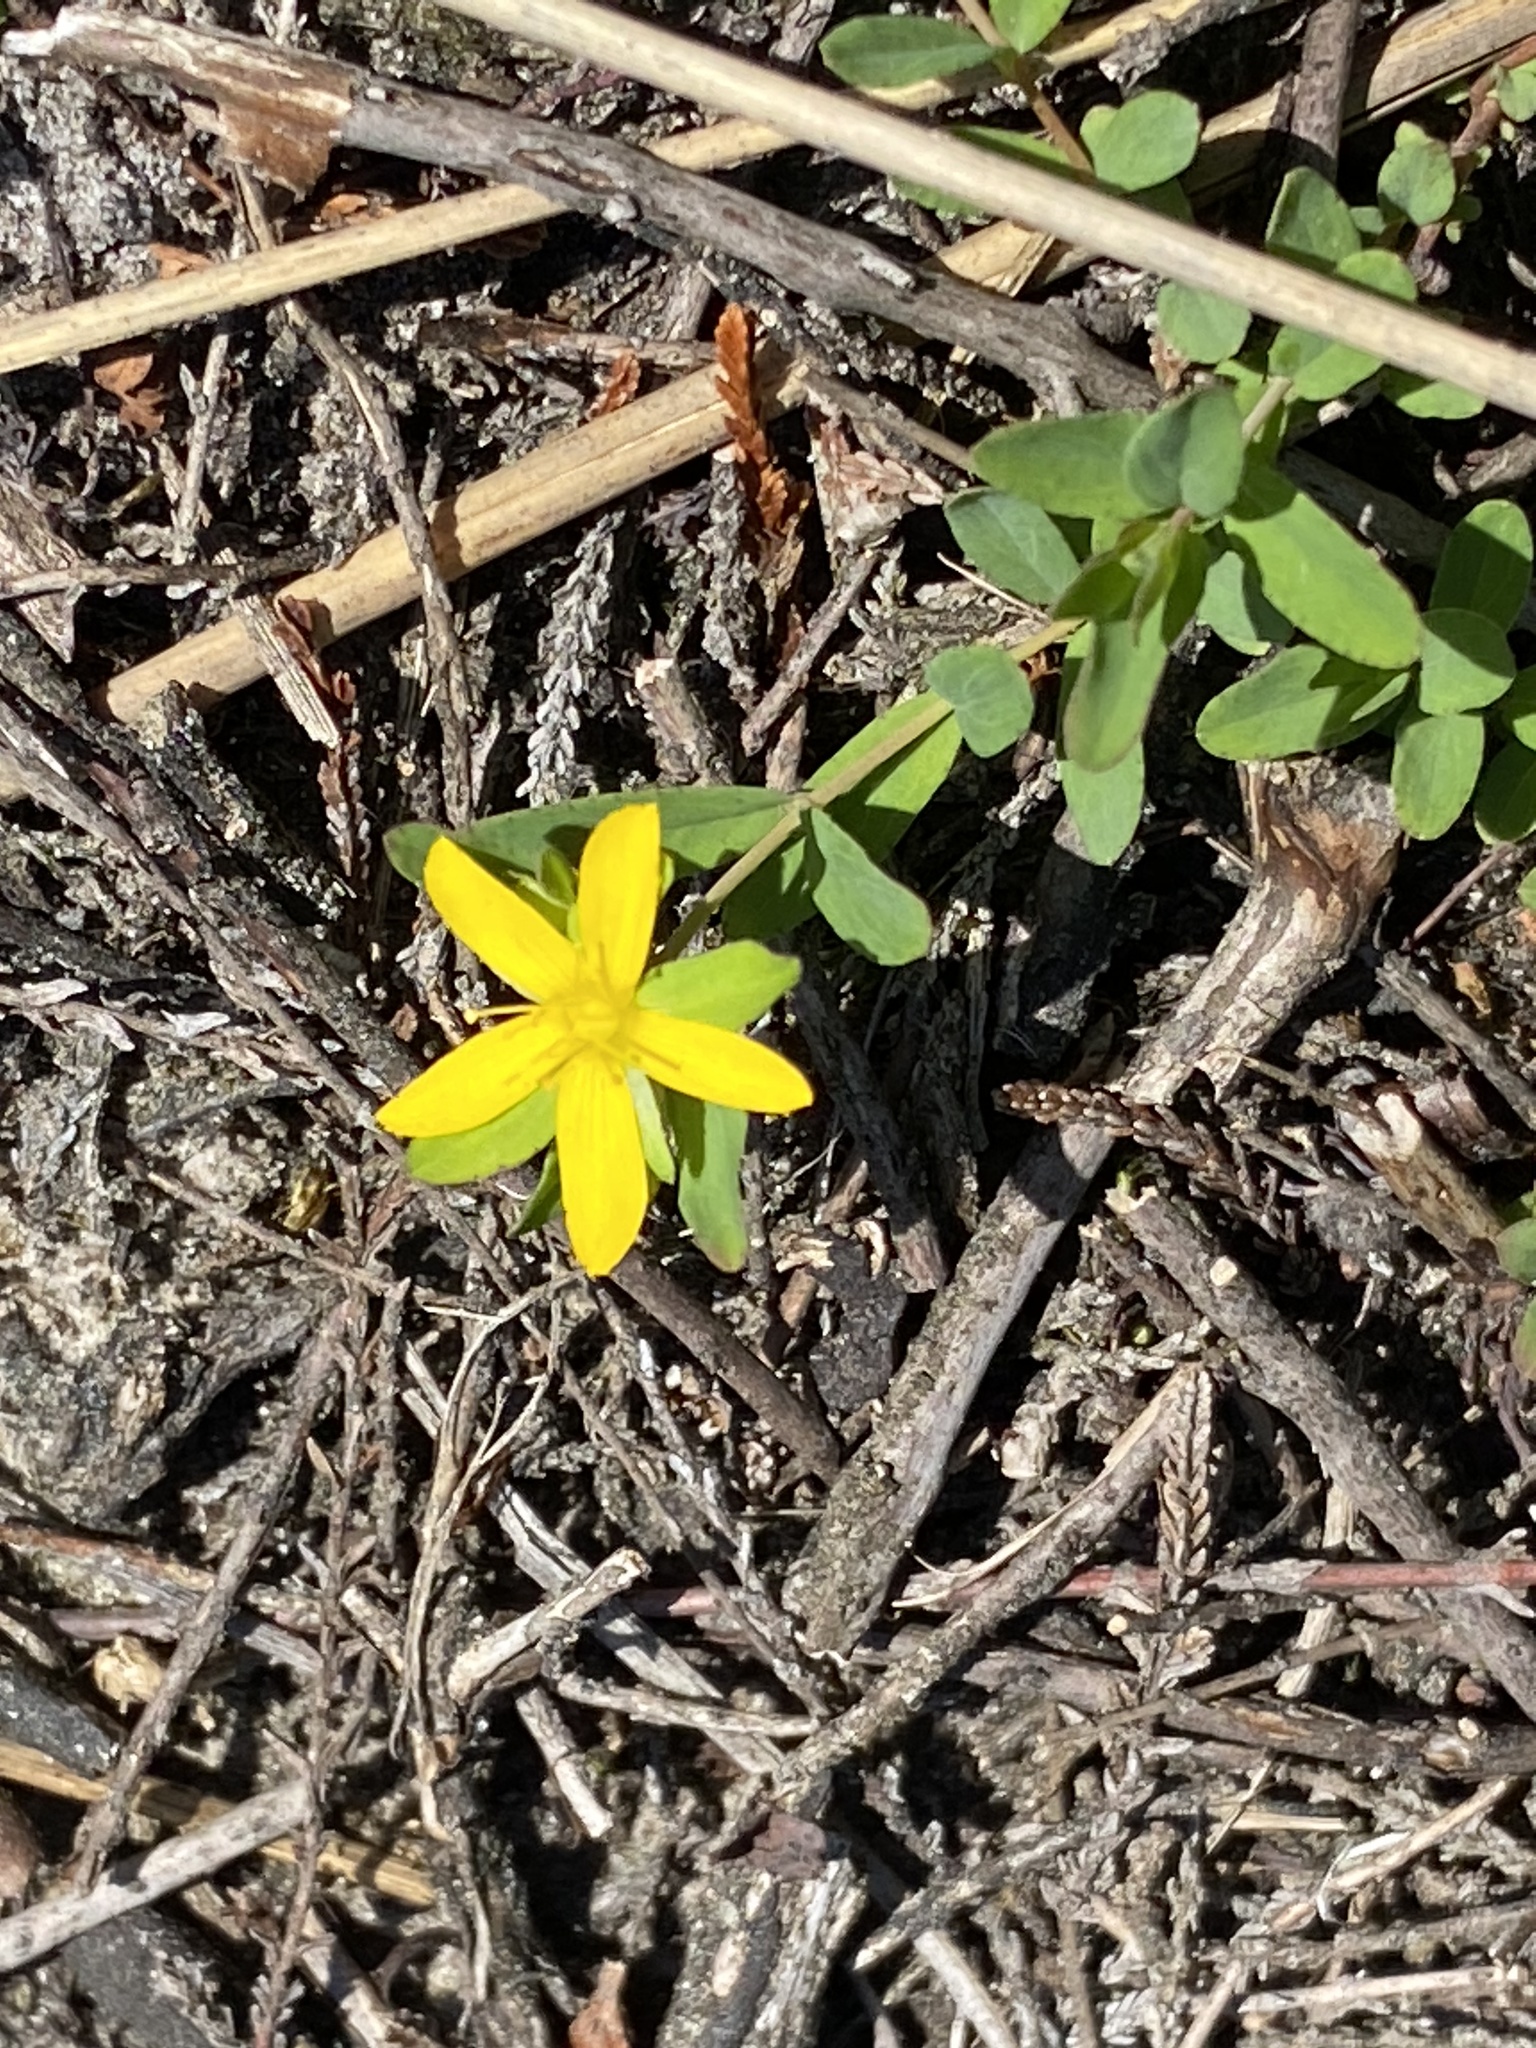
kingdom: Plantae
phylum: Tracheophyta
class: Magnoliopsida
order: Malpighiales
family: Hypericaceae
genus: Hypericum
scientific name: Hypericum humifusum
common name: Trailing st. john's-wort
